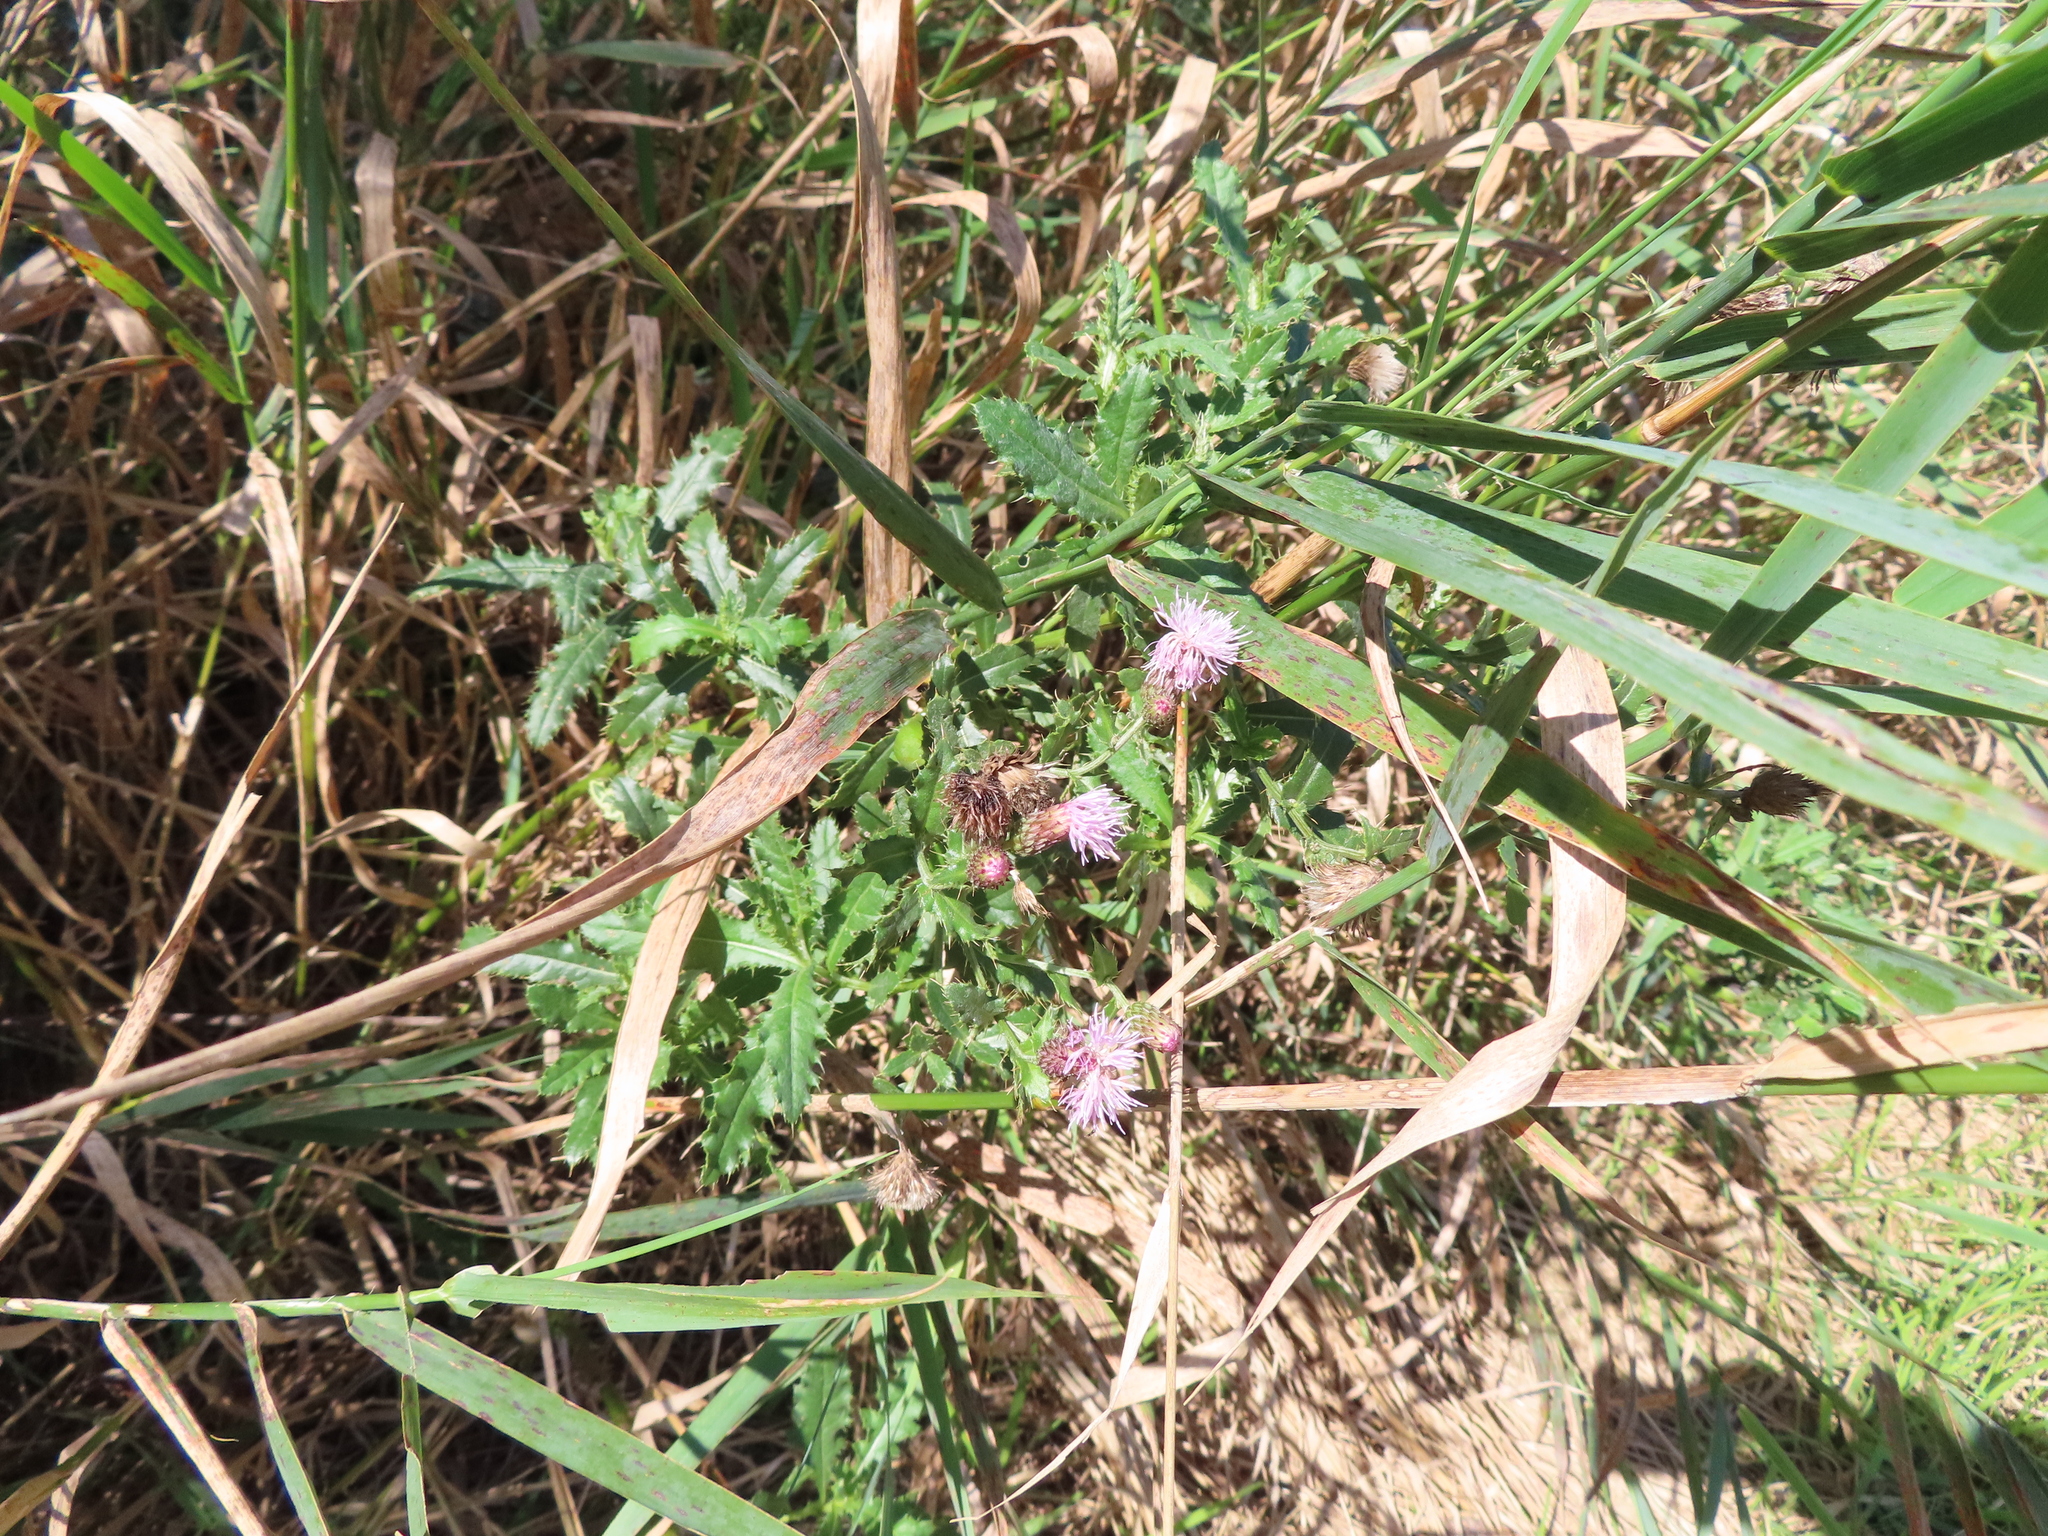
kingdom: Plantae
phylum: Tracheophyta
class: Magnoliopsida
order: Asterales
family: Asteraceae
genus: Cirsium
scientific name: Cirsium arvense
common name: Creeping thistle
